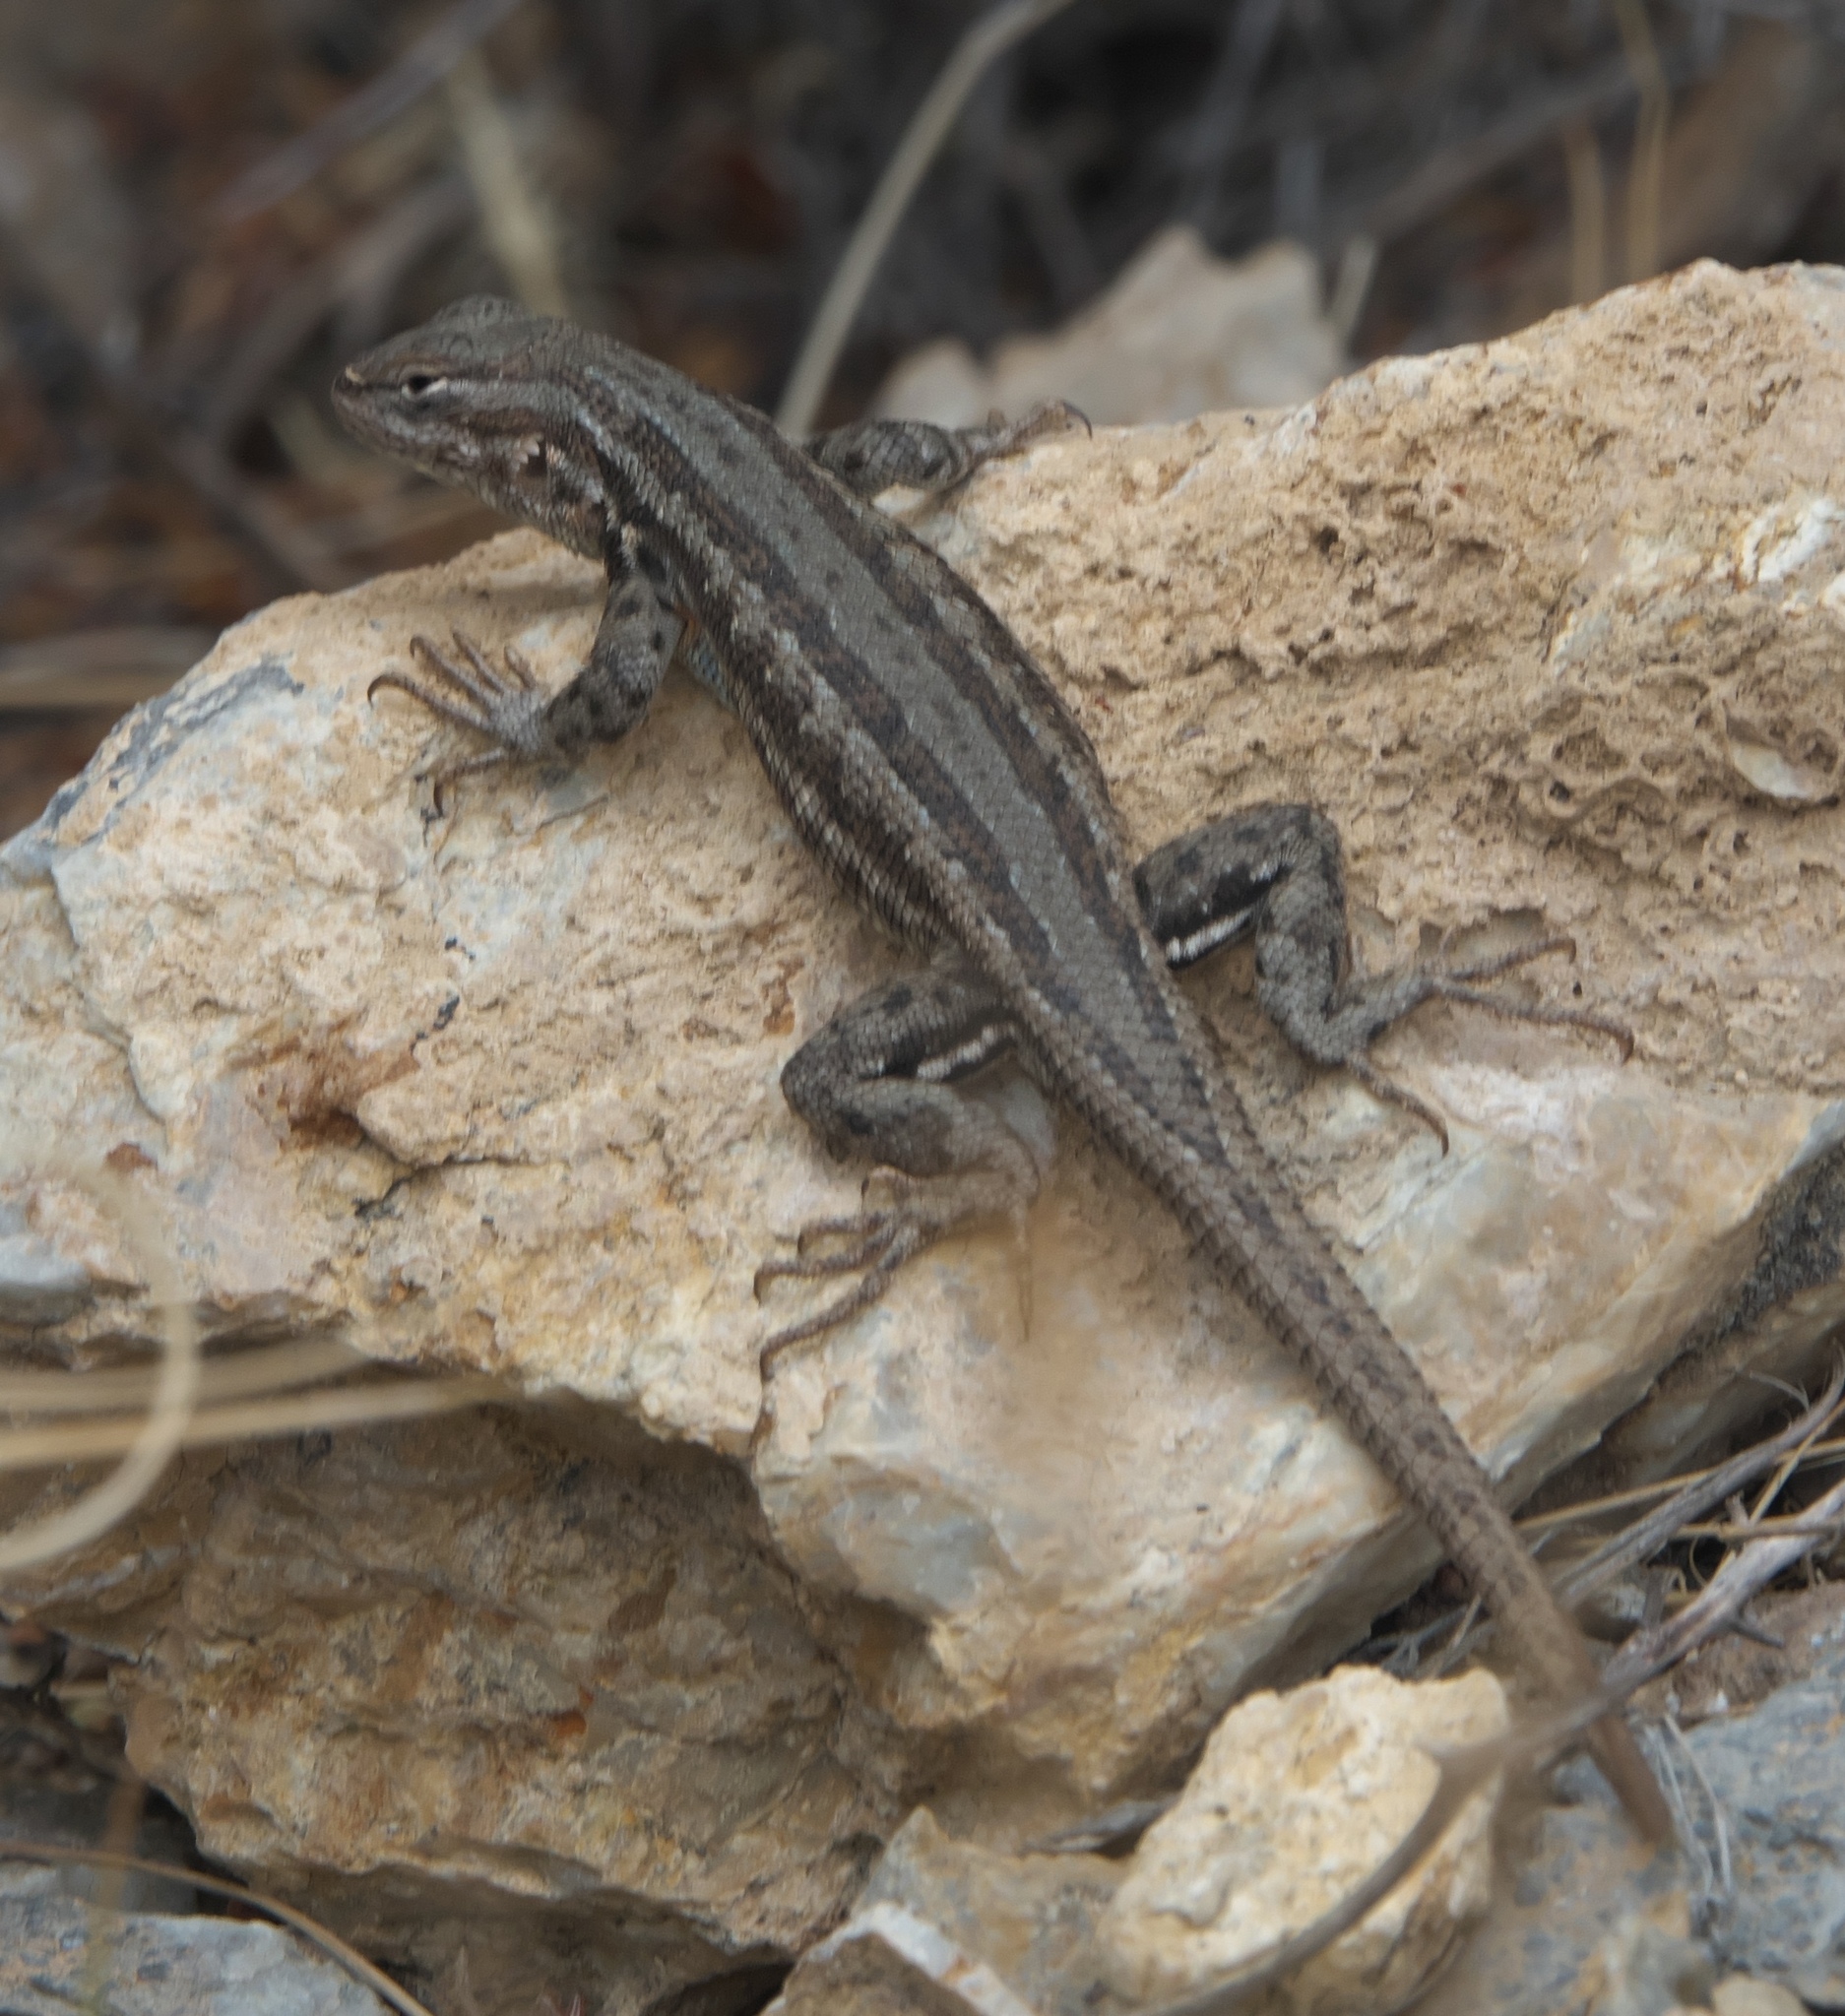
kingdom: Animalia
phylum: Chordata
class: Squamata
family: Phrynosomatidae
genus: Sceloporus
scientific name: Sceloporus graciosus
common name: Sagebrush lizard
